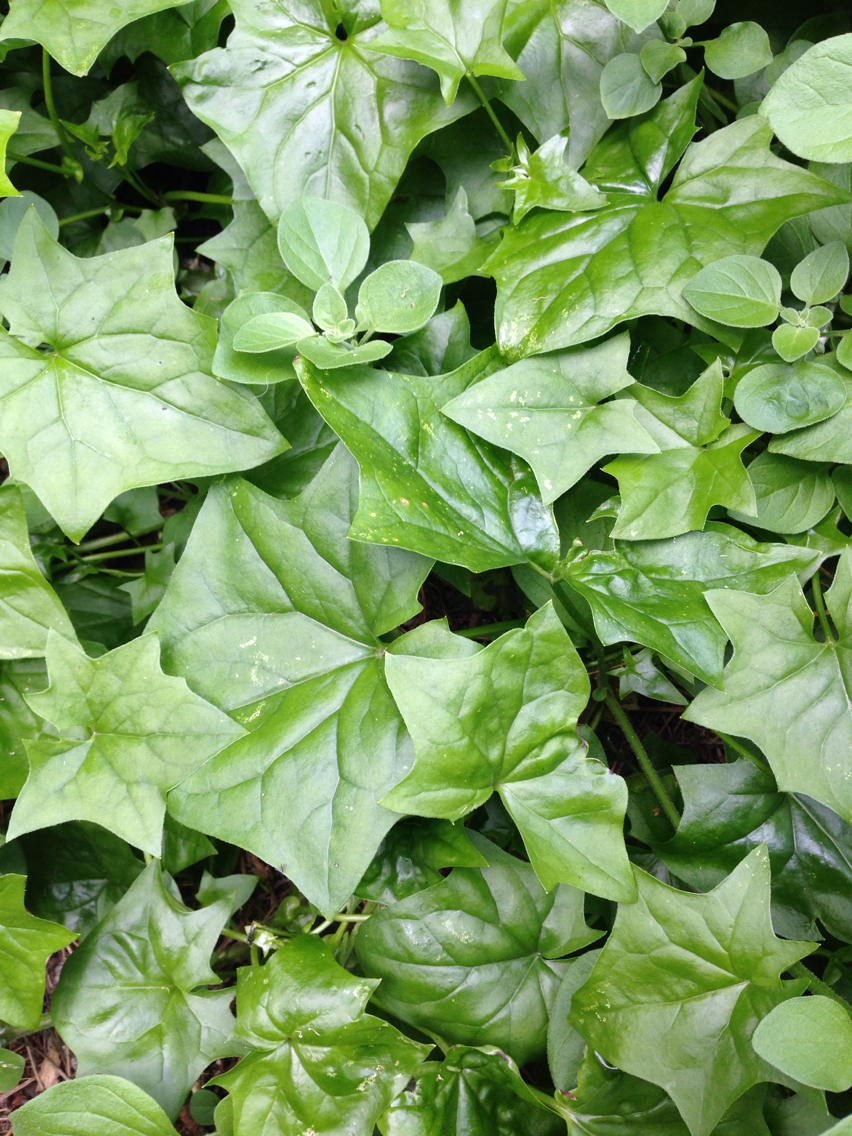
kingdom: Plantae
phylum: Tracheophyta
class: Magnoliopsida
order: Asterales
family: Asteraceae
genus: Delairea
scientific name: Delairea odorata
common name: Cape-ivy
